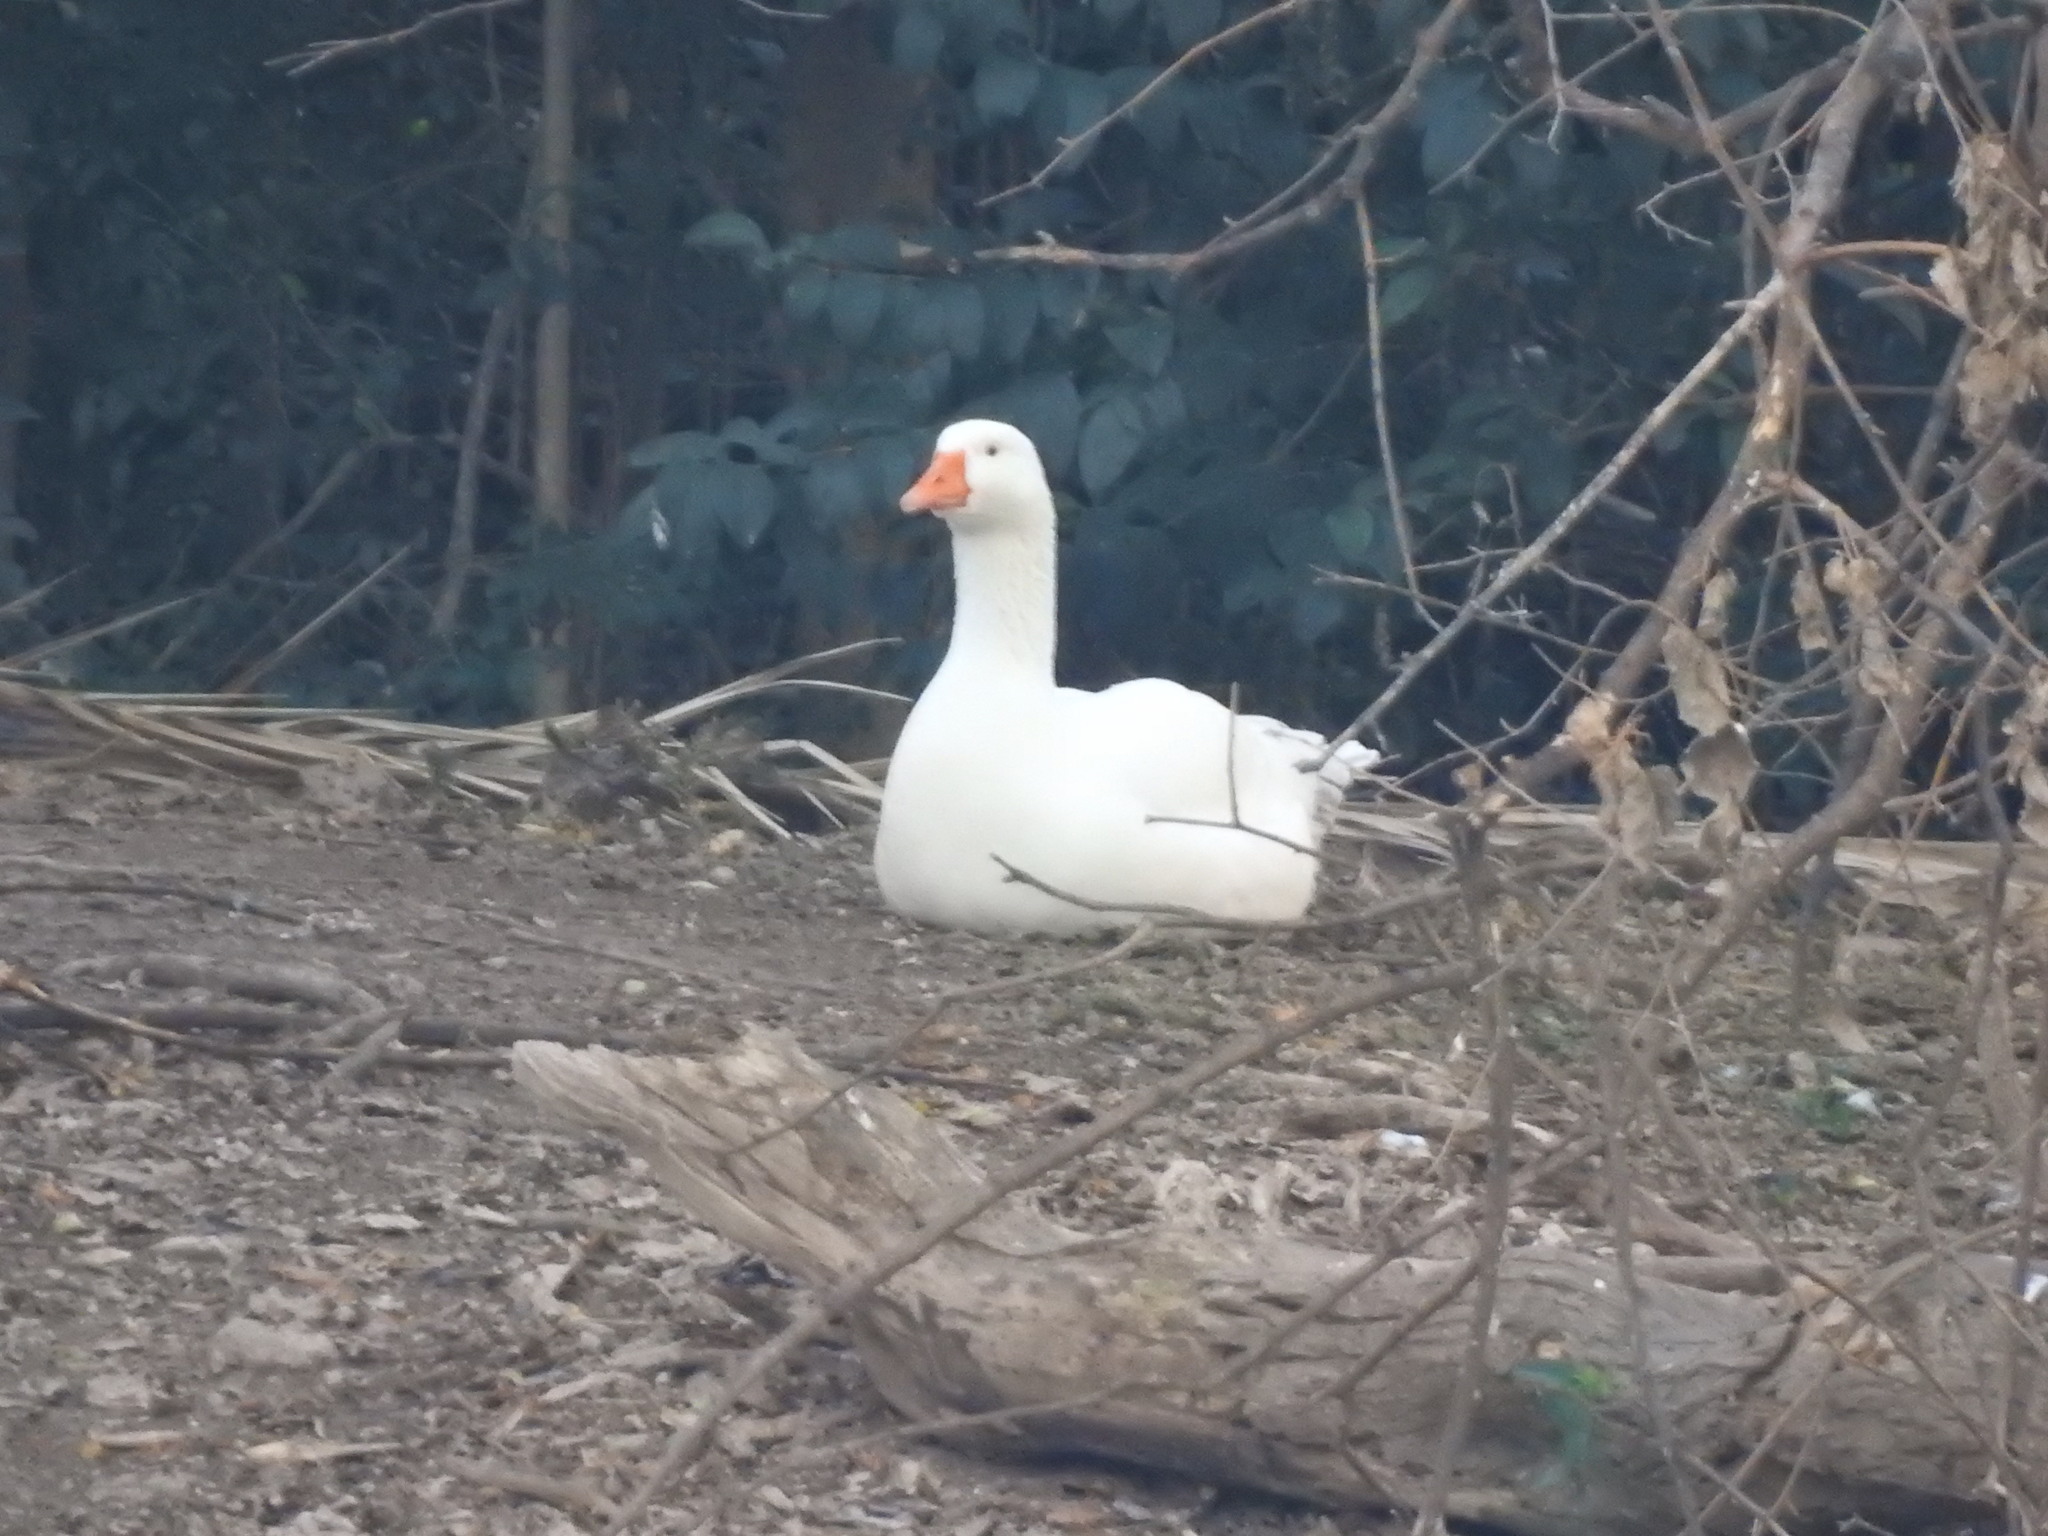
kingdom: Animalia
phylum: Chordata
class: Aves
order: Anseriformes
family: Anatidae
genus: Anser
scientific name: Anser anser
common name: Greylag goose
